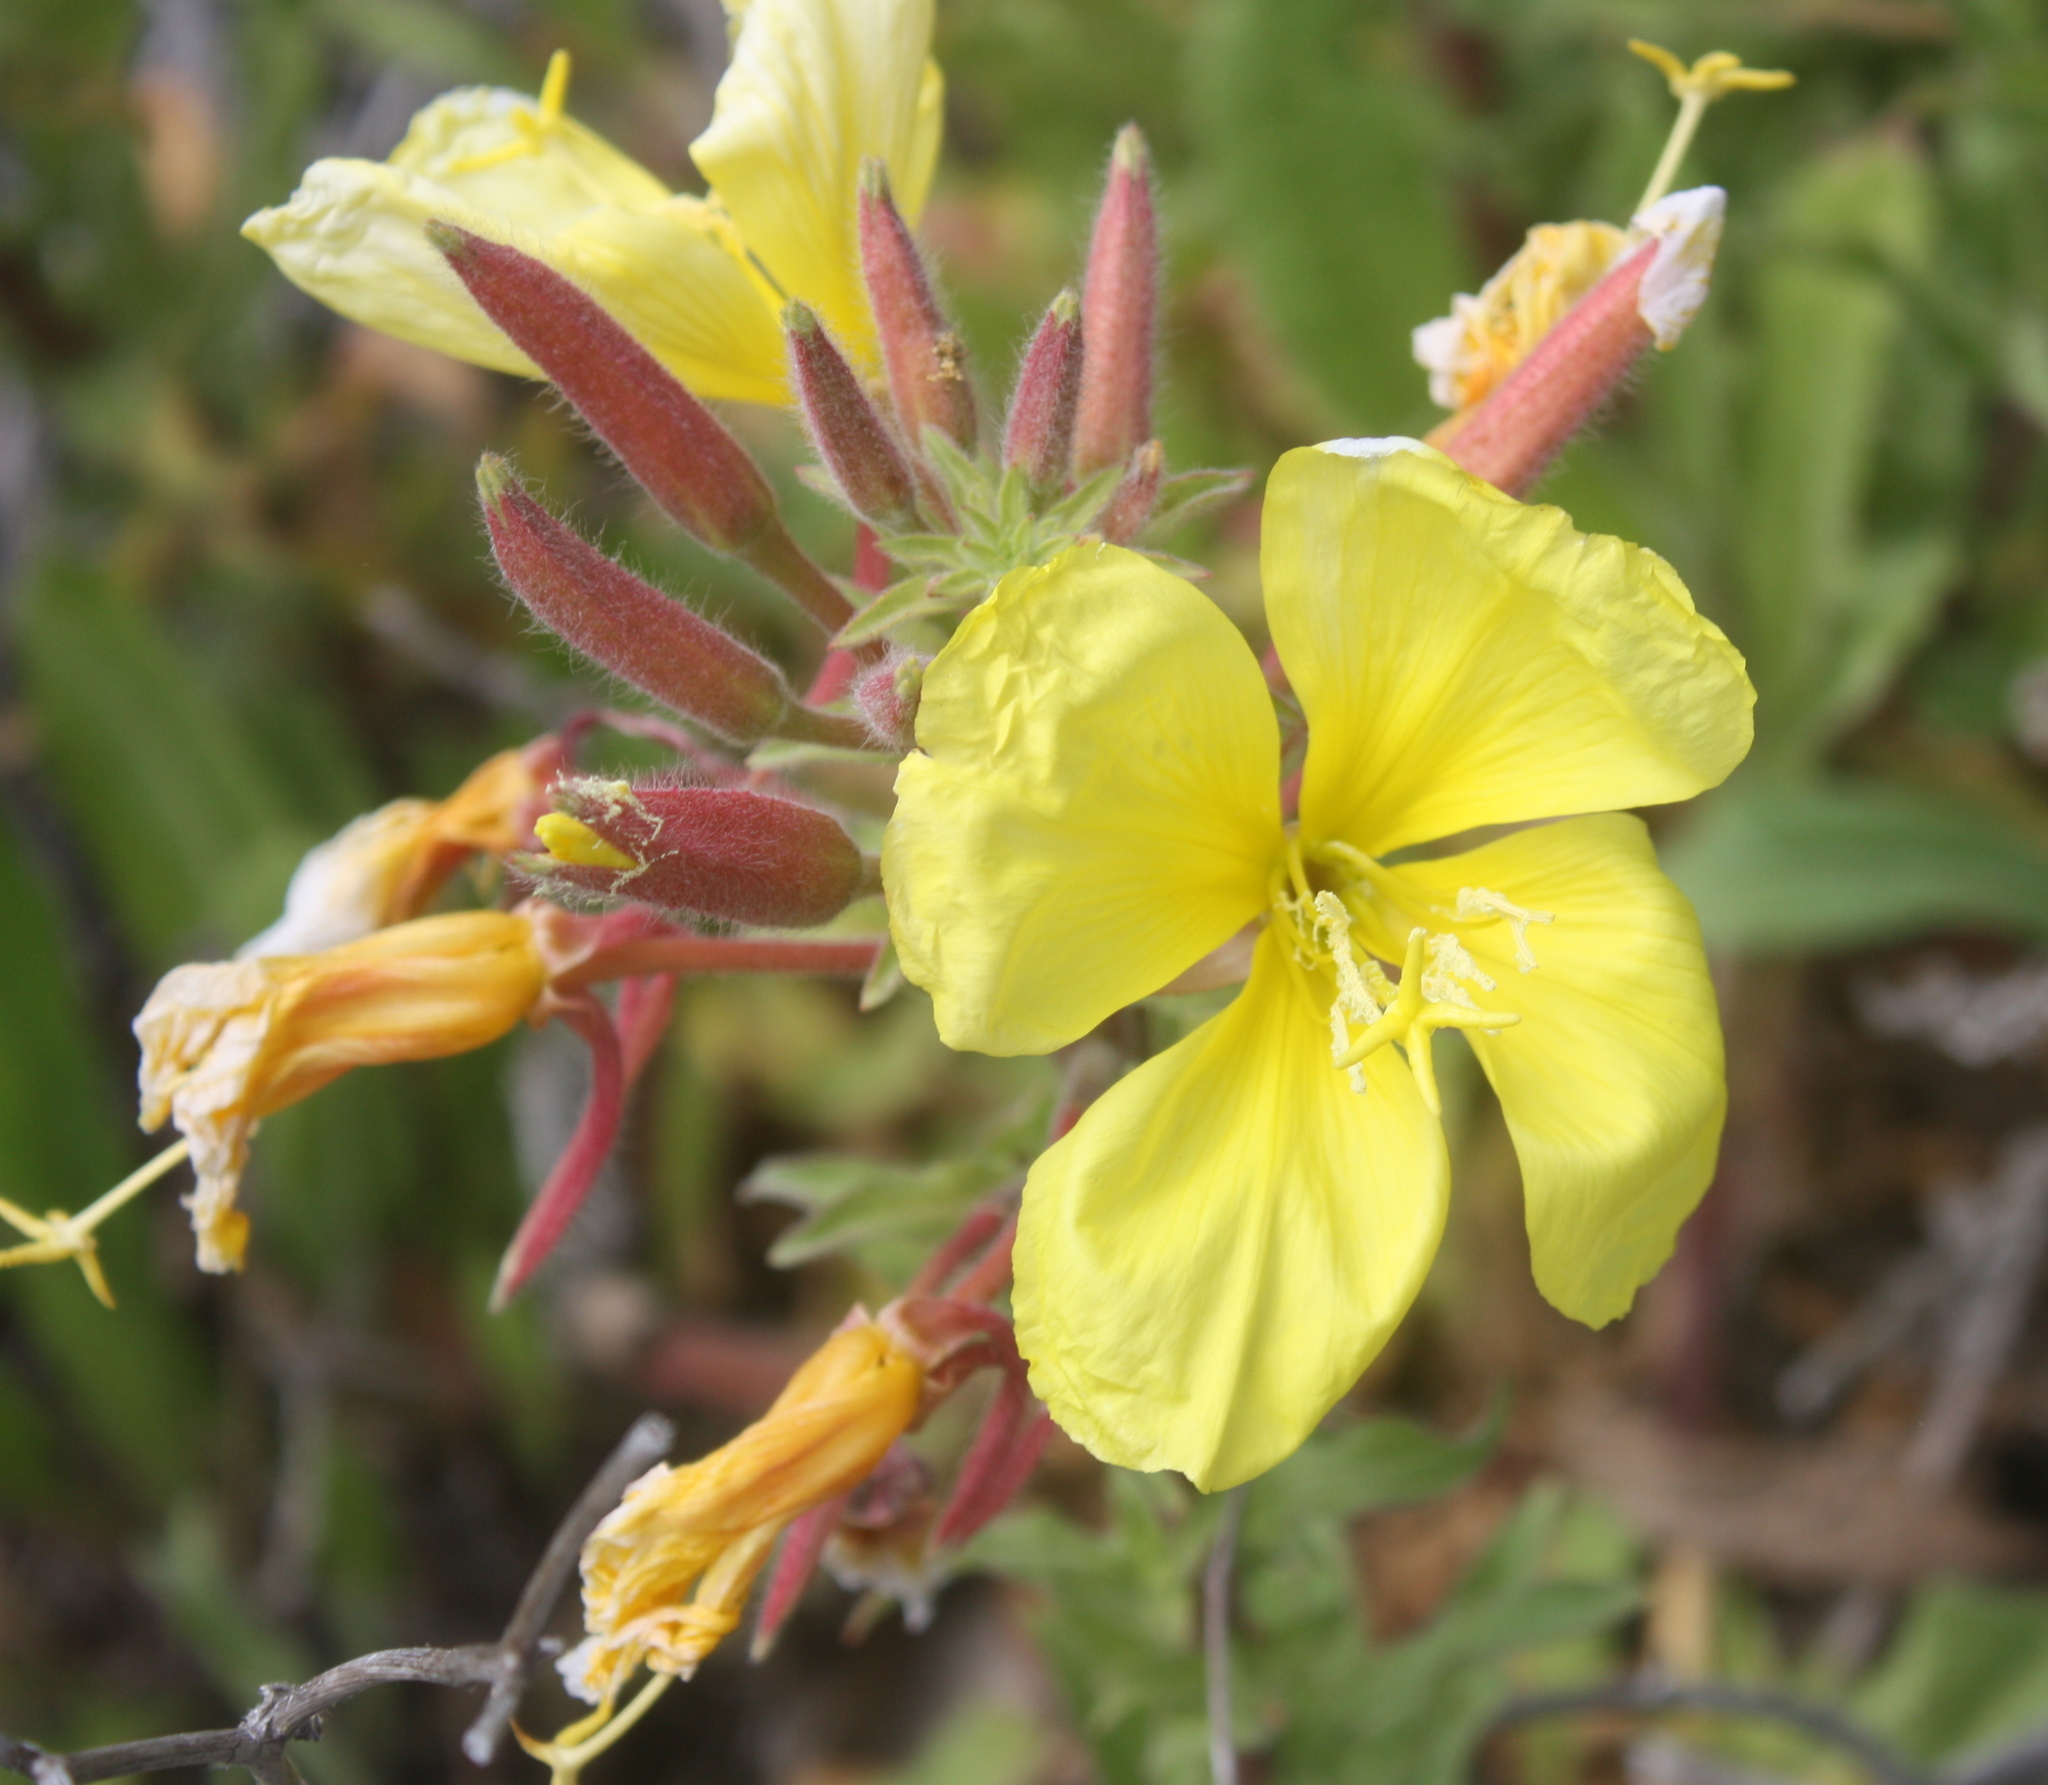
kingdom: Plantae
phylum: Tracheophyta
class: Magnoliopsida
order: Myrtales
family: Onagraceae
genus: Oenothera
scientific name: Oenothera glazioviana
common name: Large-flowered evening-primrose
